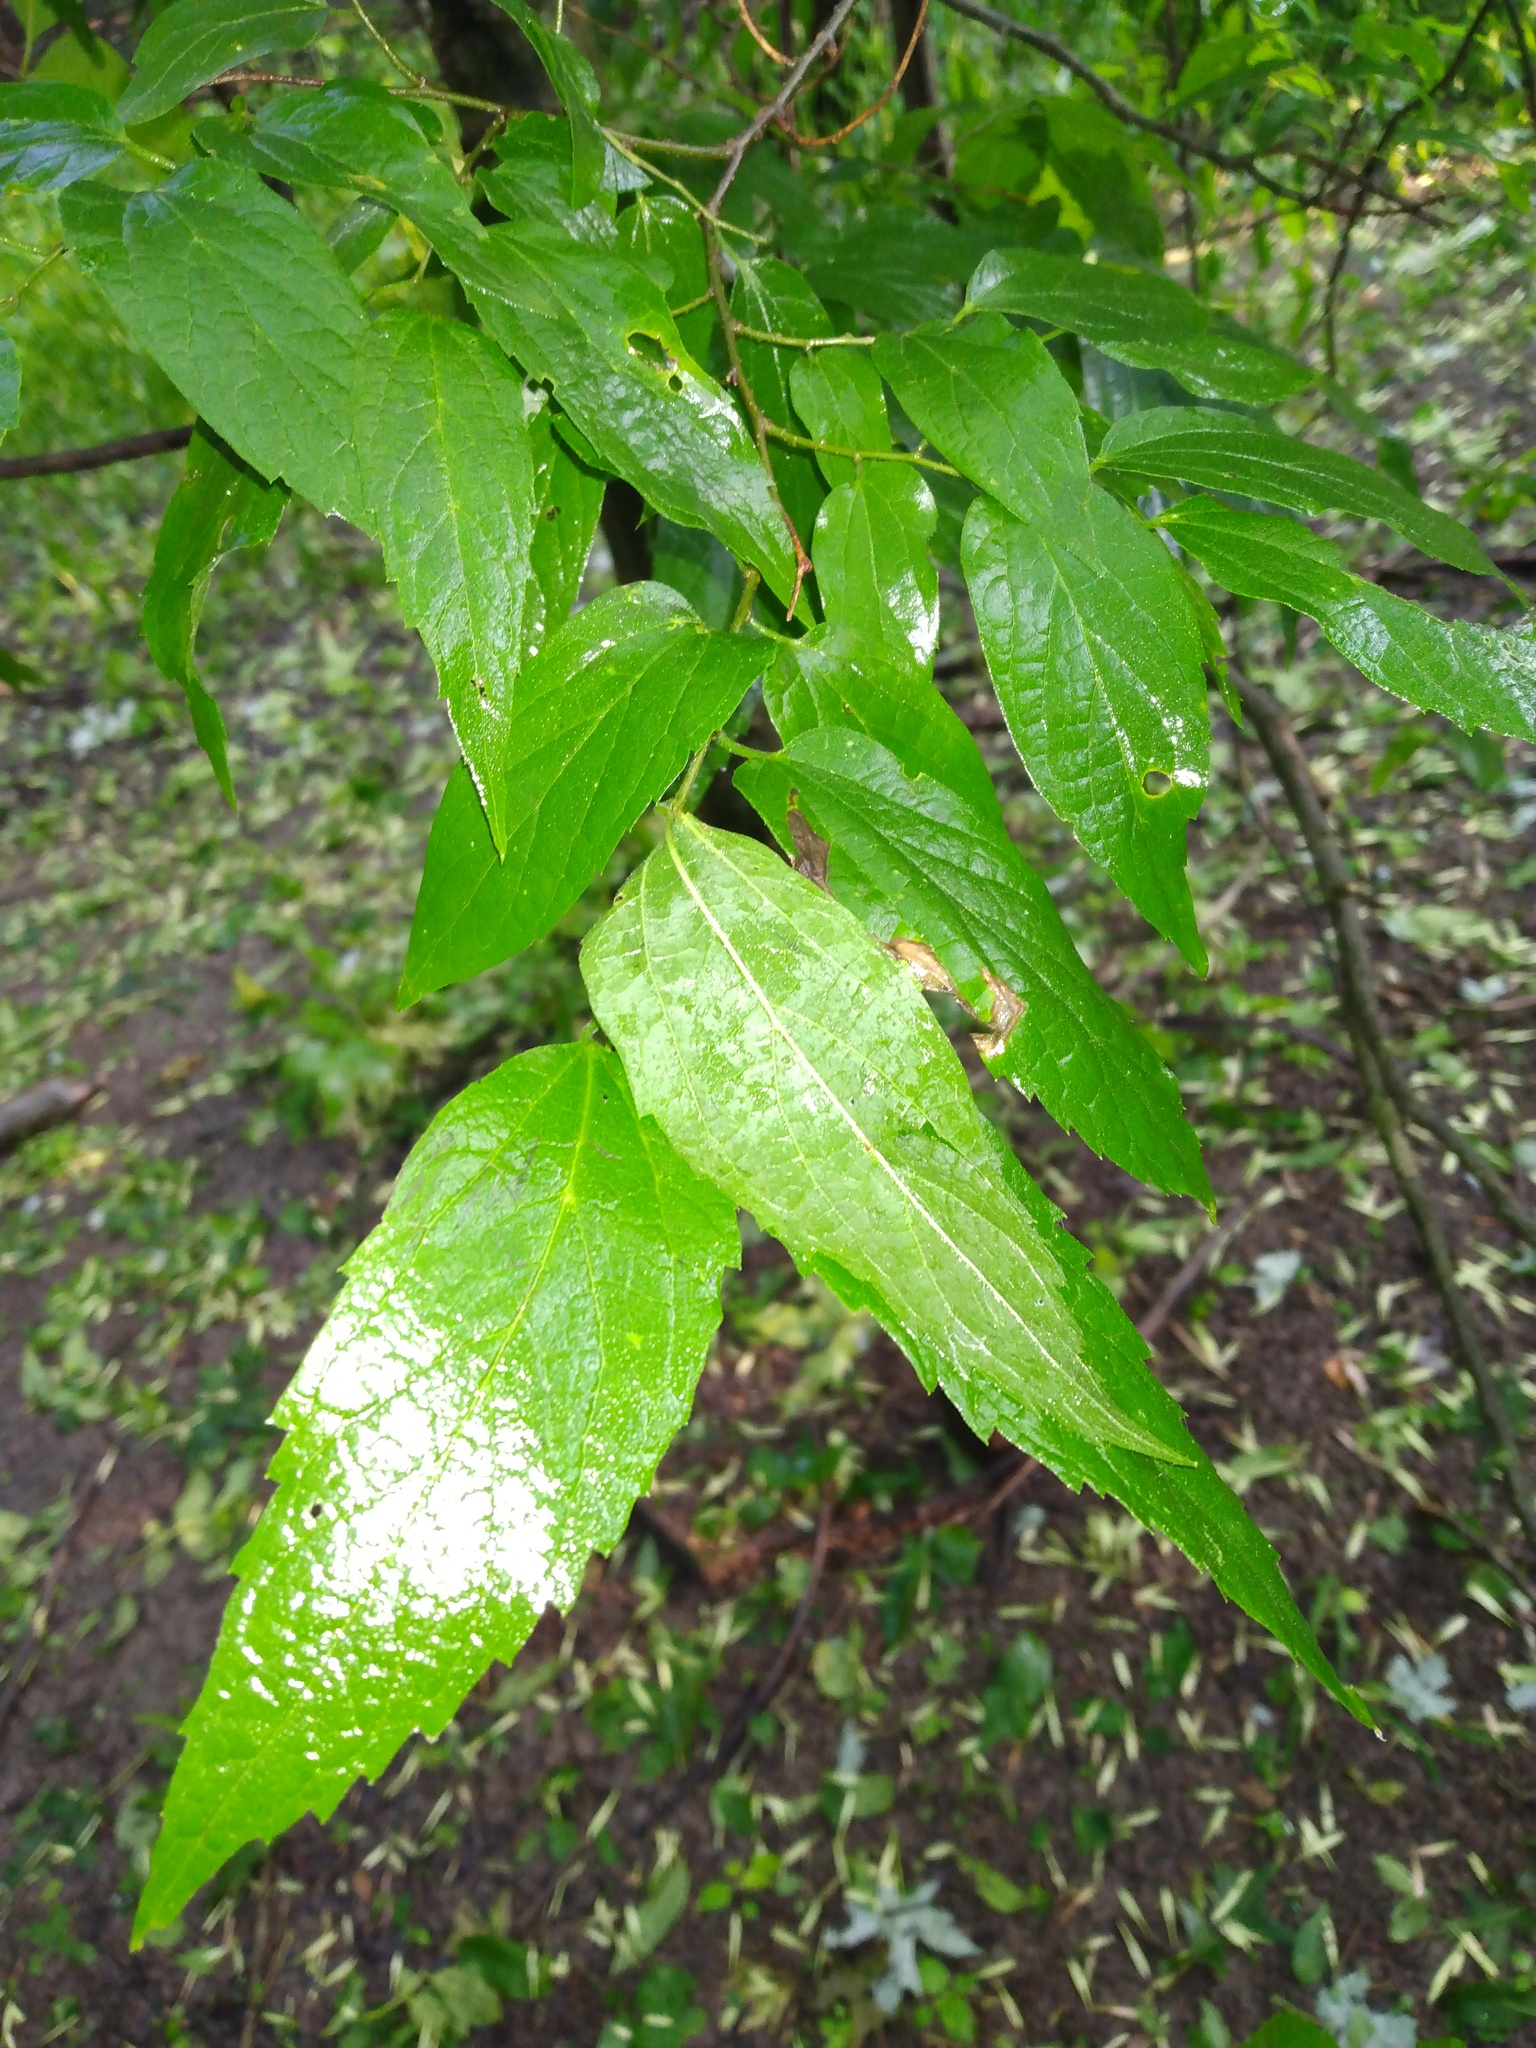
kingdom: Plantae
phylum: Tracheophyta
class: Magnoliopsida
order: Rosales
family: Cannabaceae
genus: Celtis
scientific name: Celtis laevigata
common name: Sugarberry
